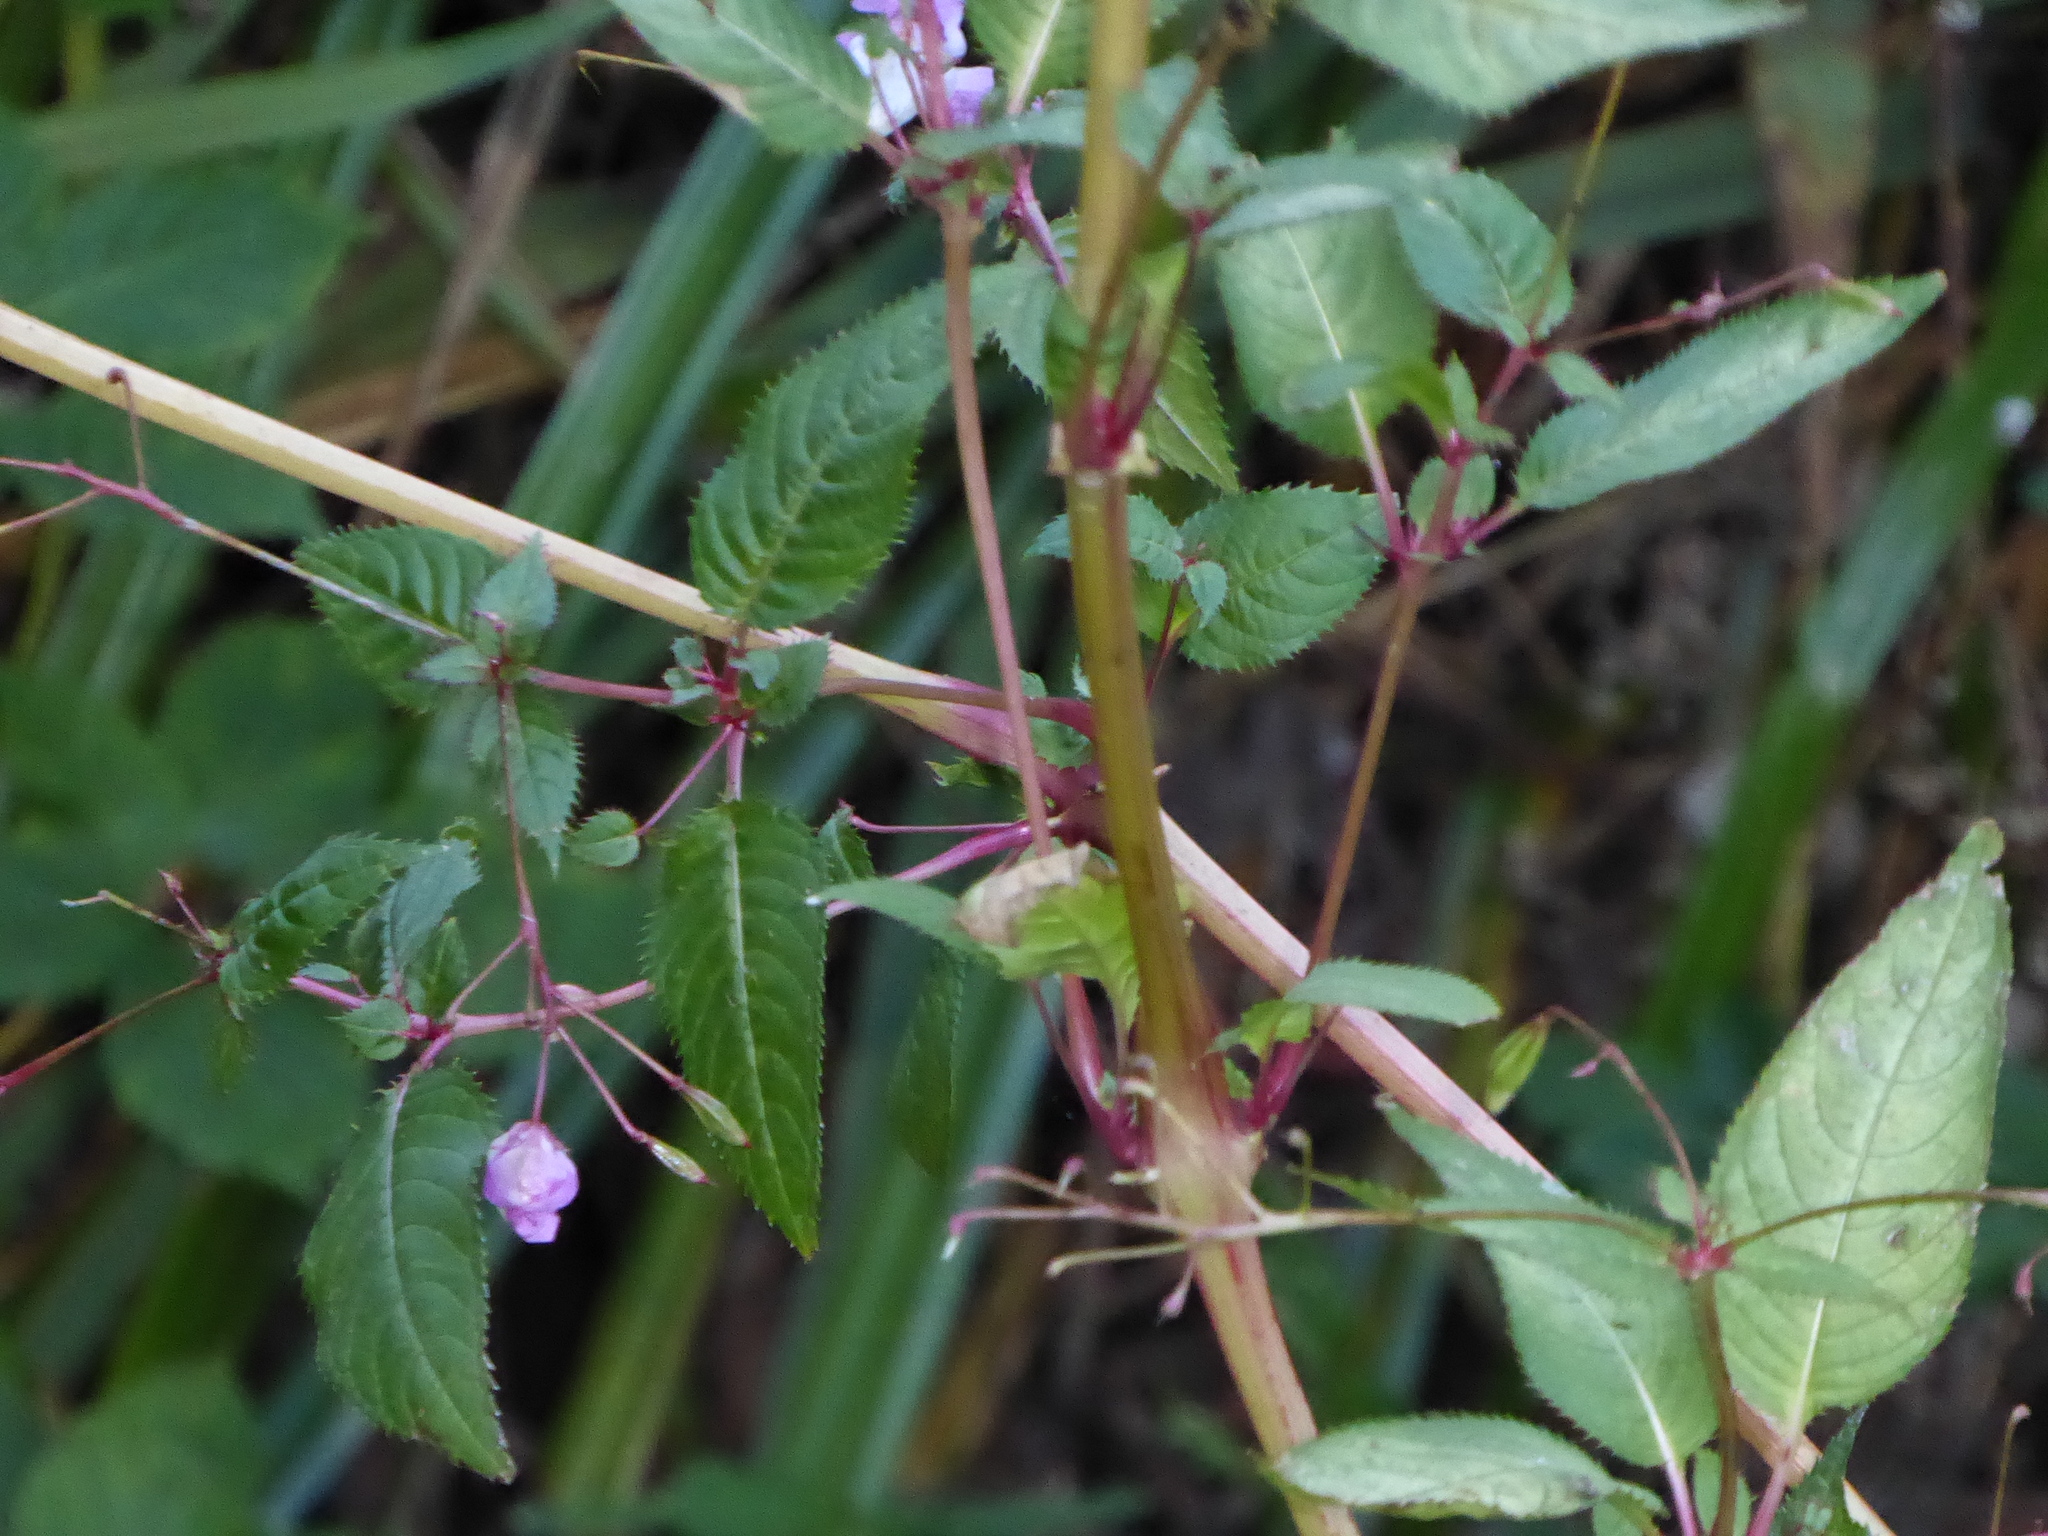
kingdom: Plantae
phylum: Tracheophyta
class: Magnoliopsida
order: Ericales
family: Balsaminaceae
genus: Impatiens
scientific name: Impatiens glandulifera
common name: Himalayan balsam
